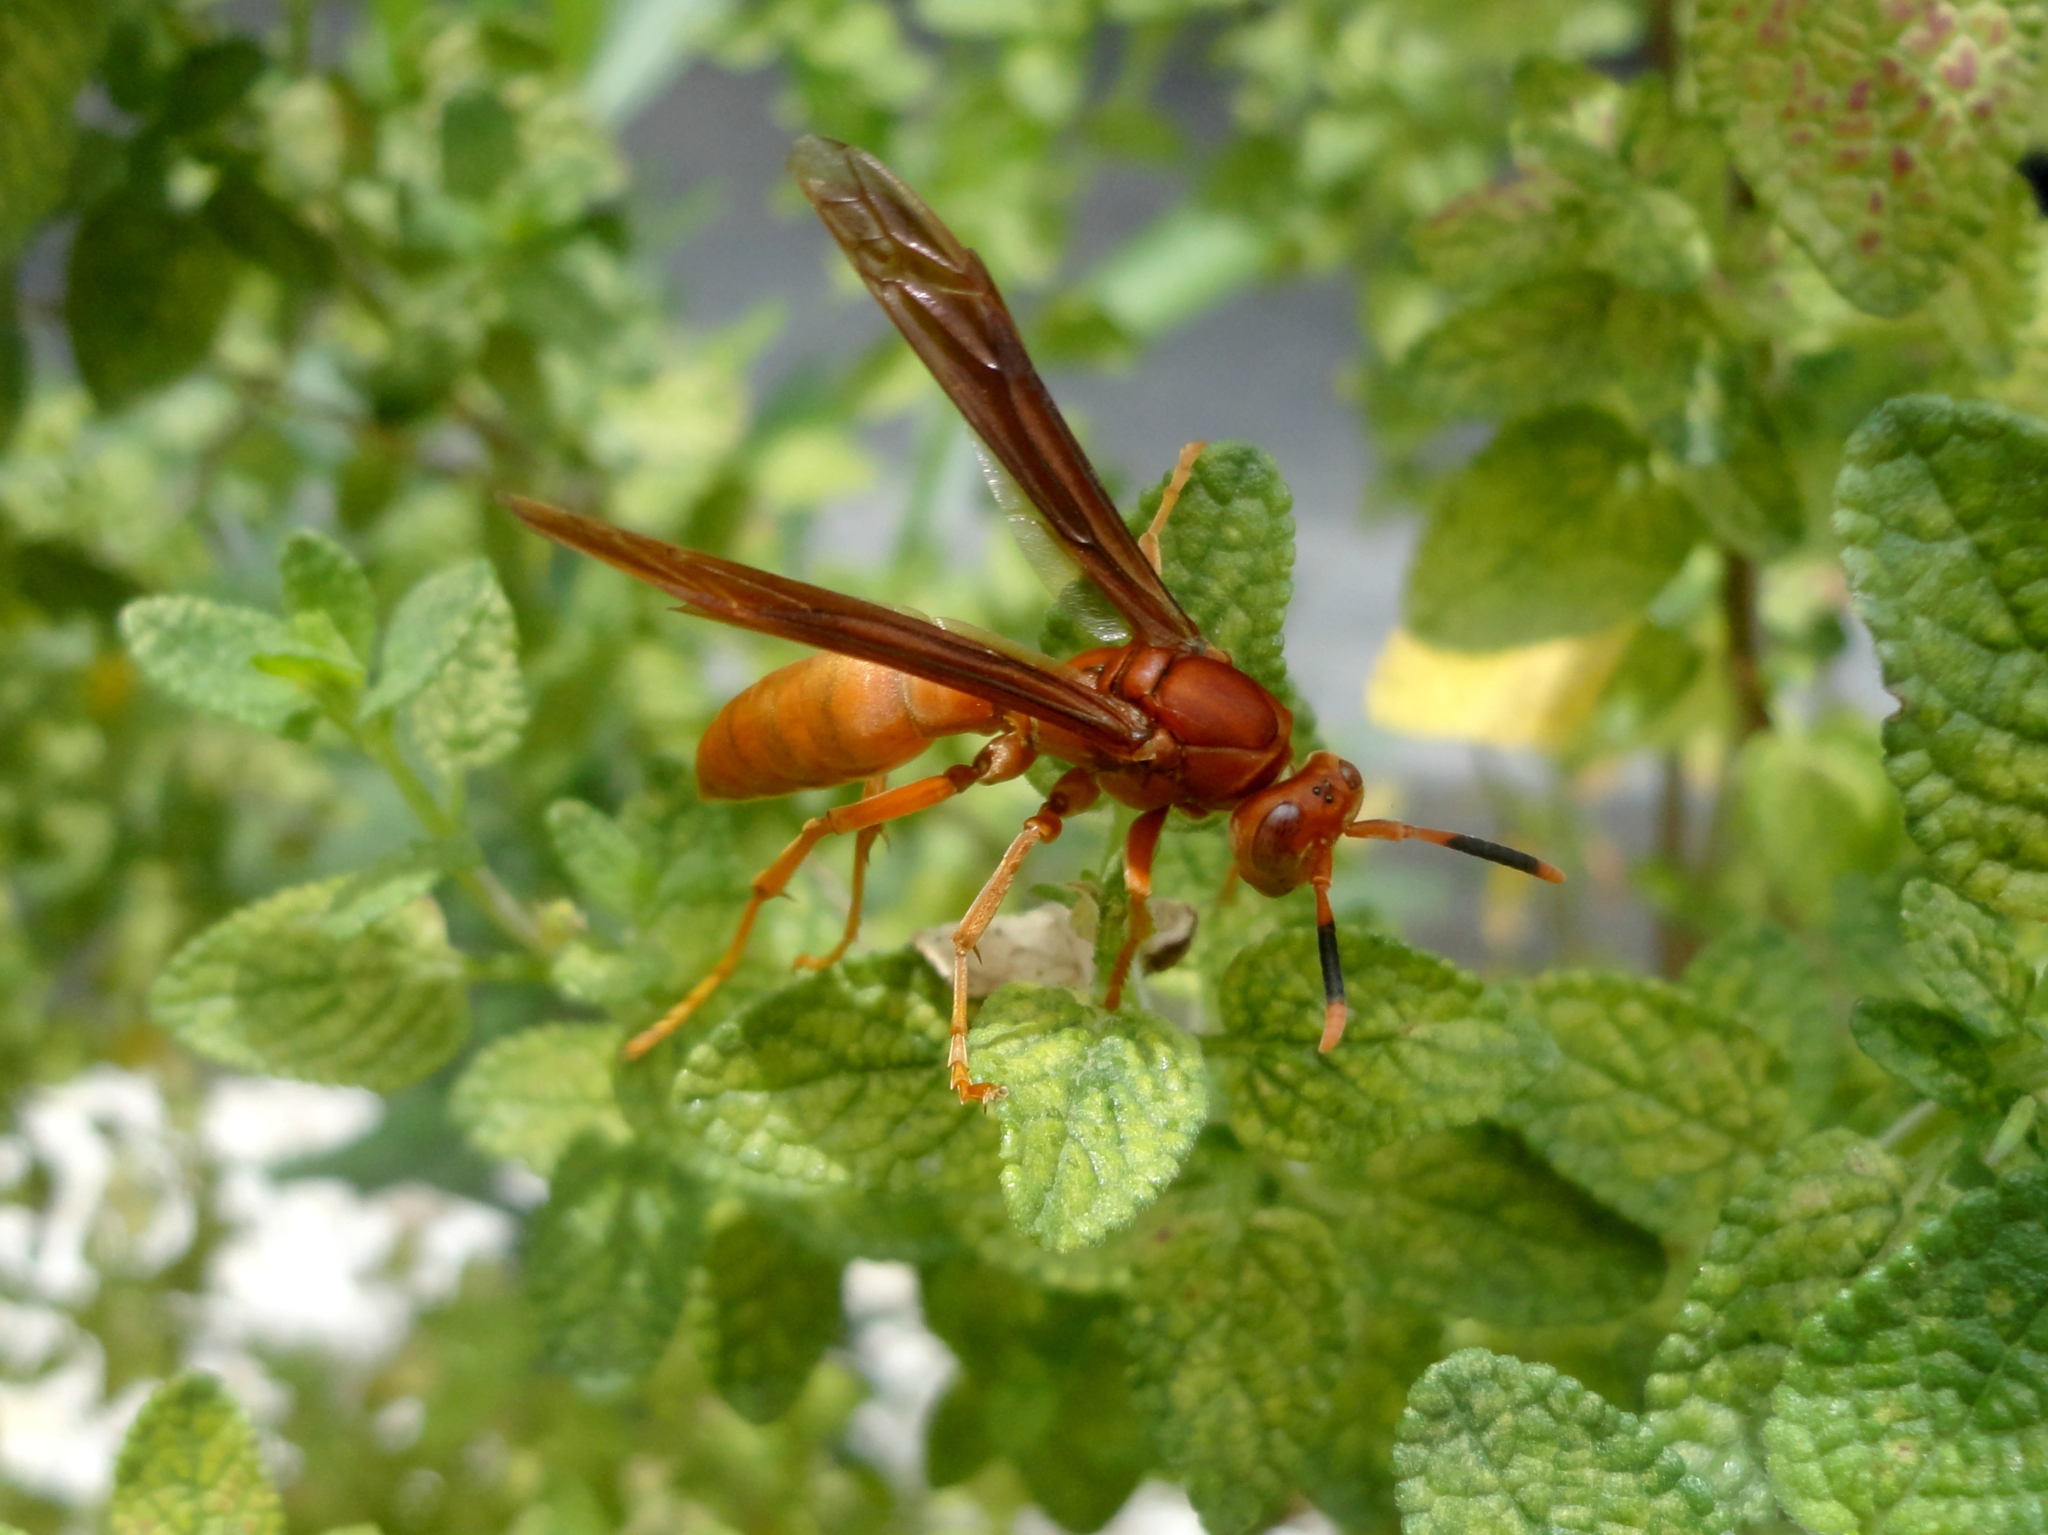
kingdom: Animalia
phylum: Arthropoda
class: Insecta
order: Hymenoptera
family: Eumenidae
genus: Polistes
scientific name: Polistes canadensis
